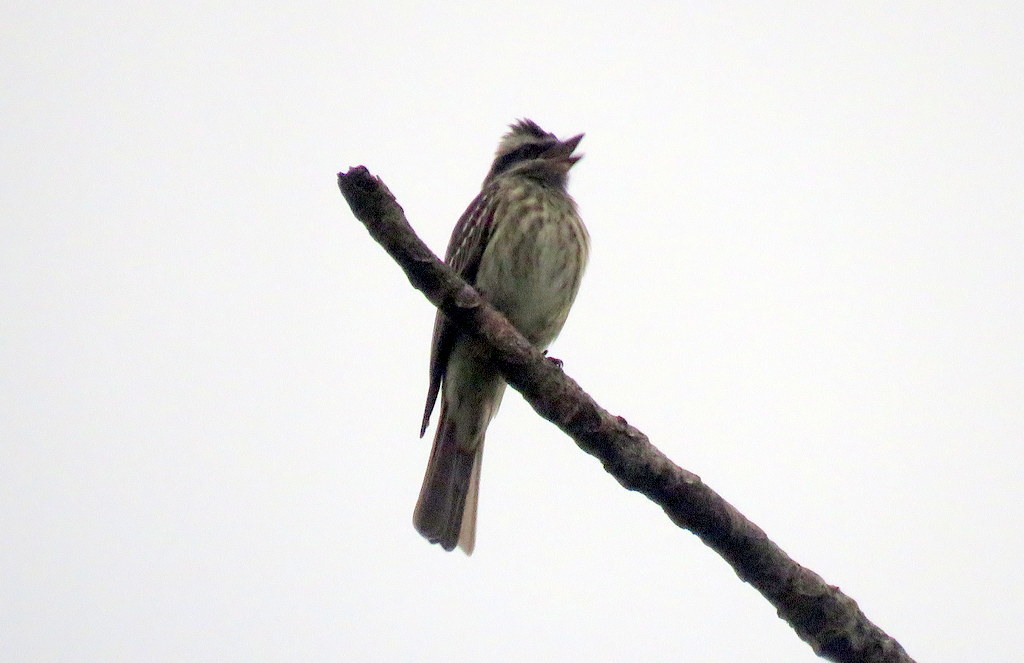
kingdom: Animalia
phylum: Chordata
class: Aves
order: Passeriformes
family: Tyrannidae
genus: Empidonomus
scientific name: Empidonomus varius
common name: Variegated flycatcher
